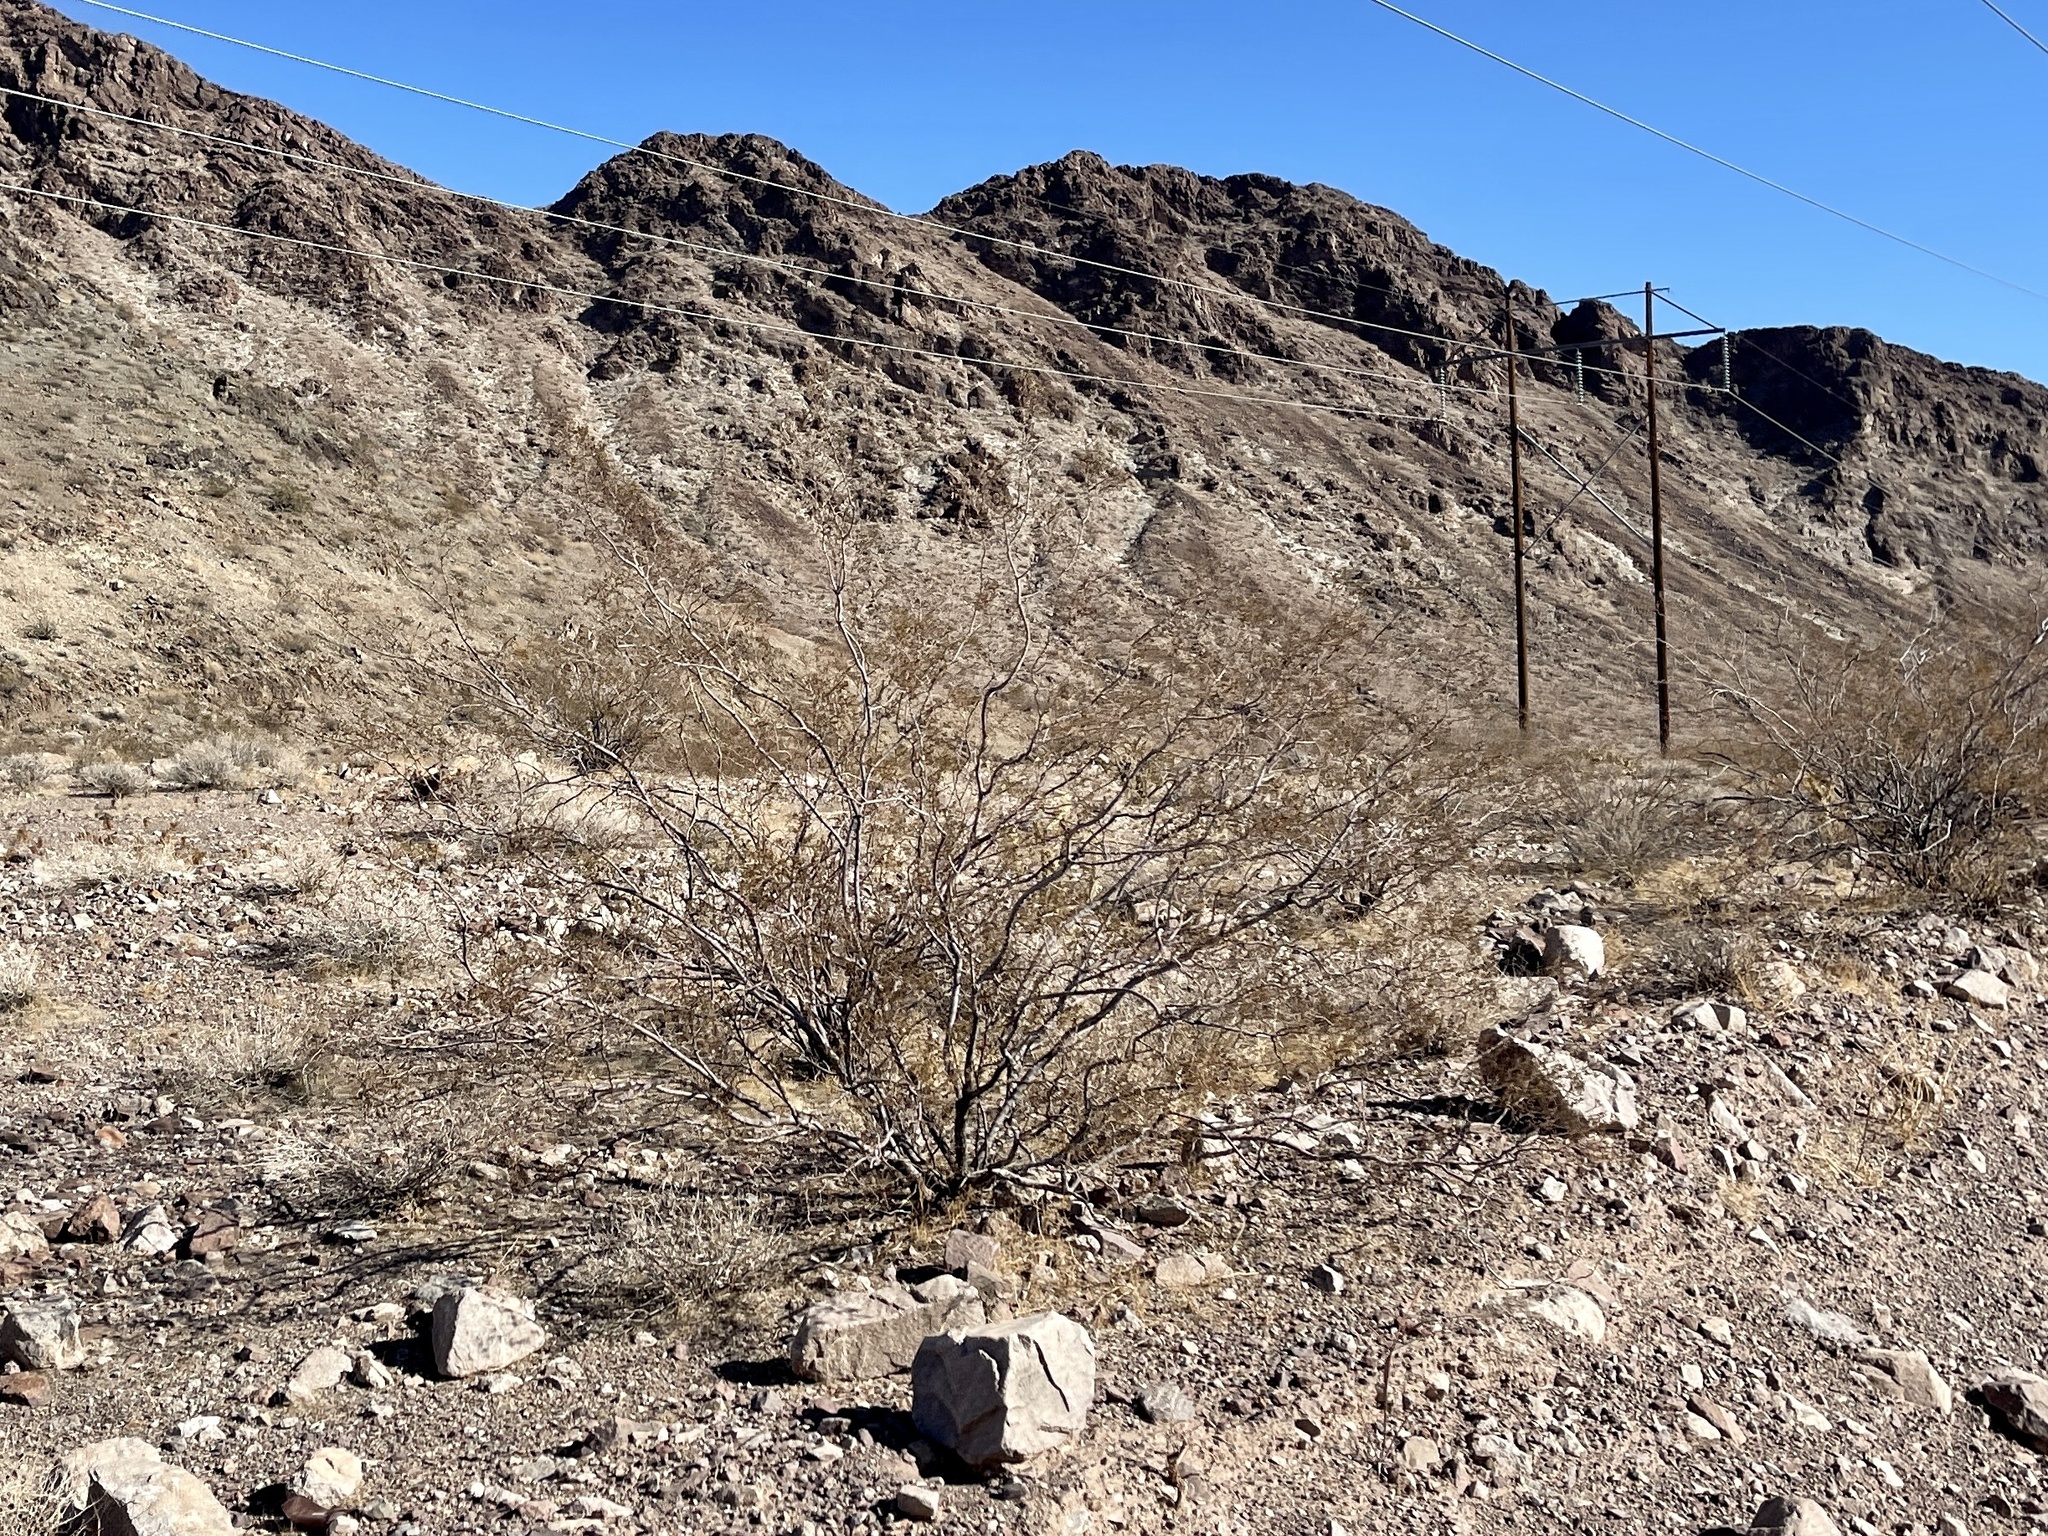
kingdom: Plantae
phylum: Tracheophyta
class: Magnoliopsida
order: Zygophyllales
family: Zygophyllaceae
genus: Larrea
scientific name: Larrea tridentata
